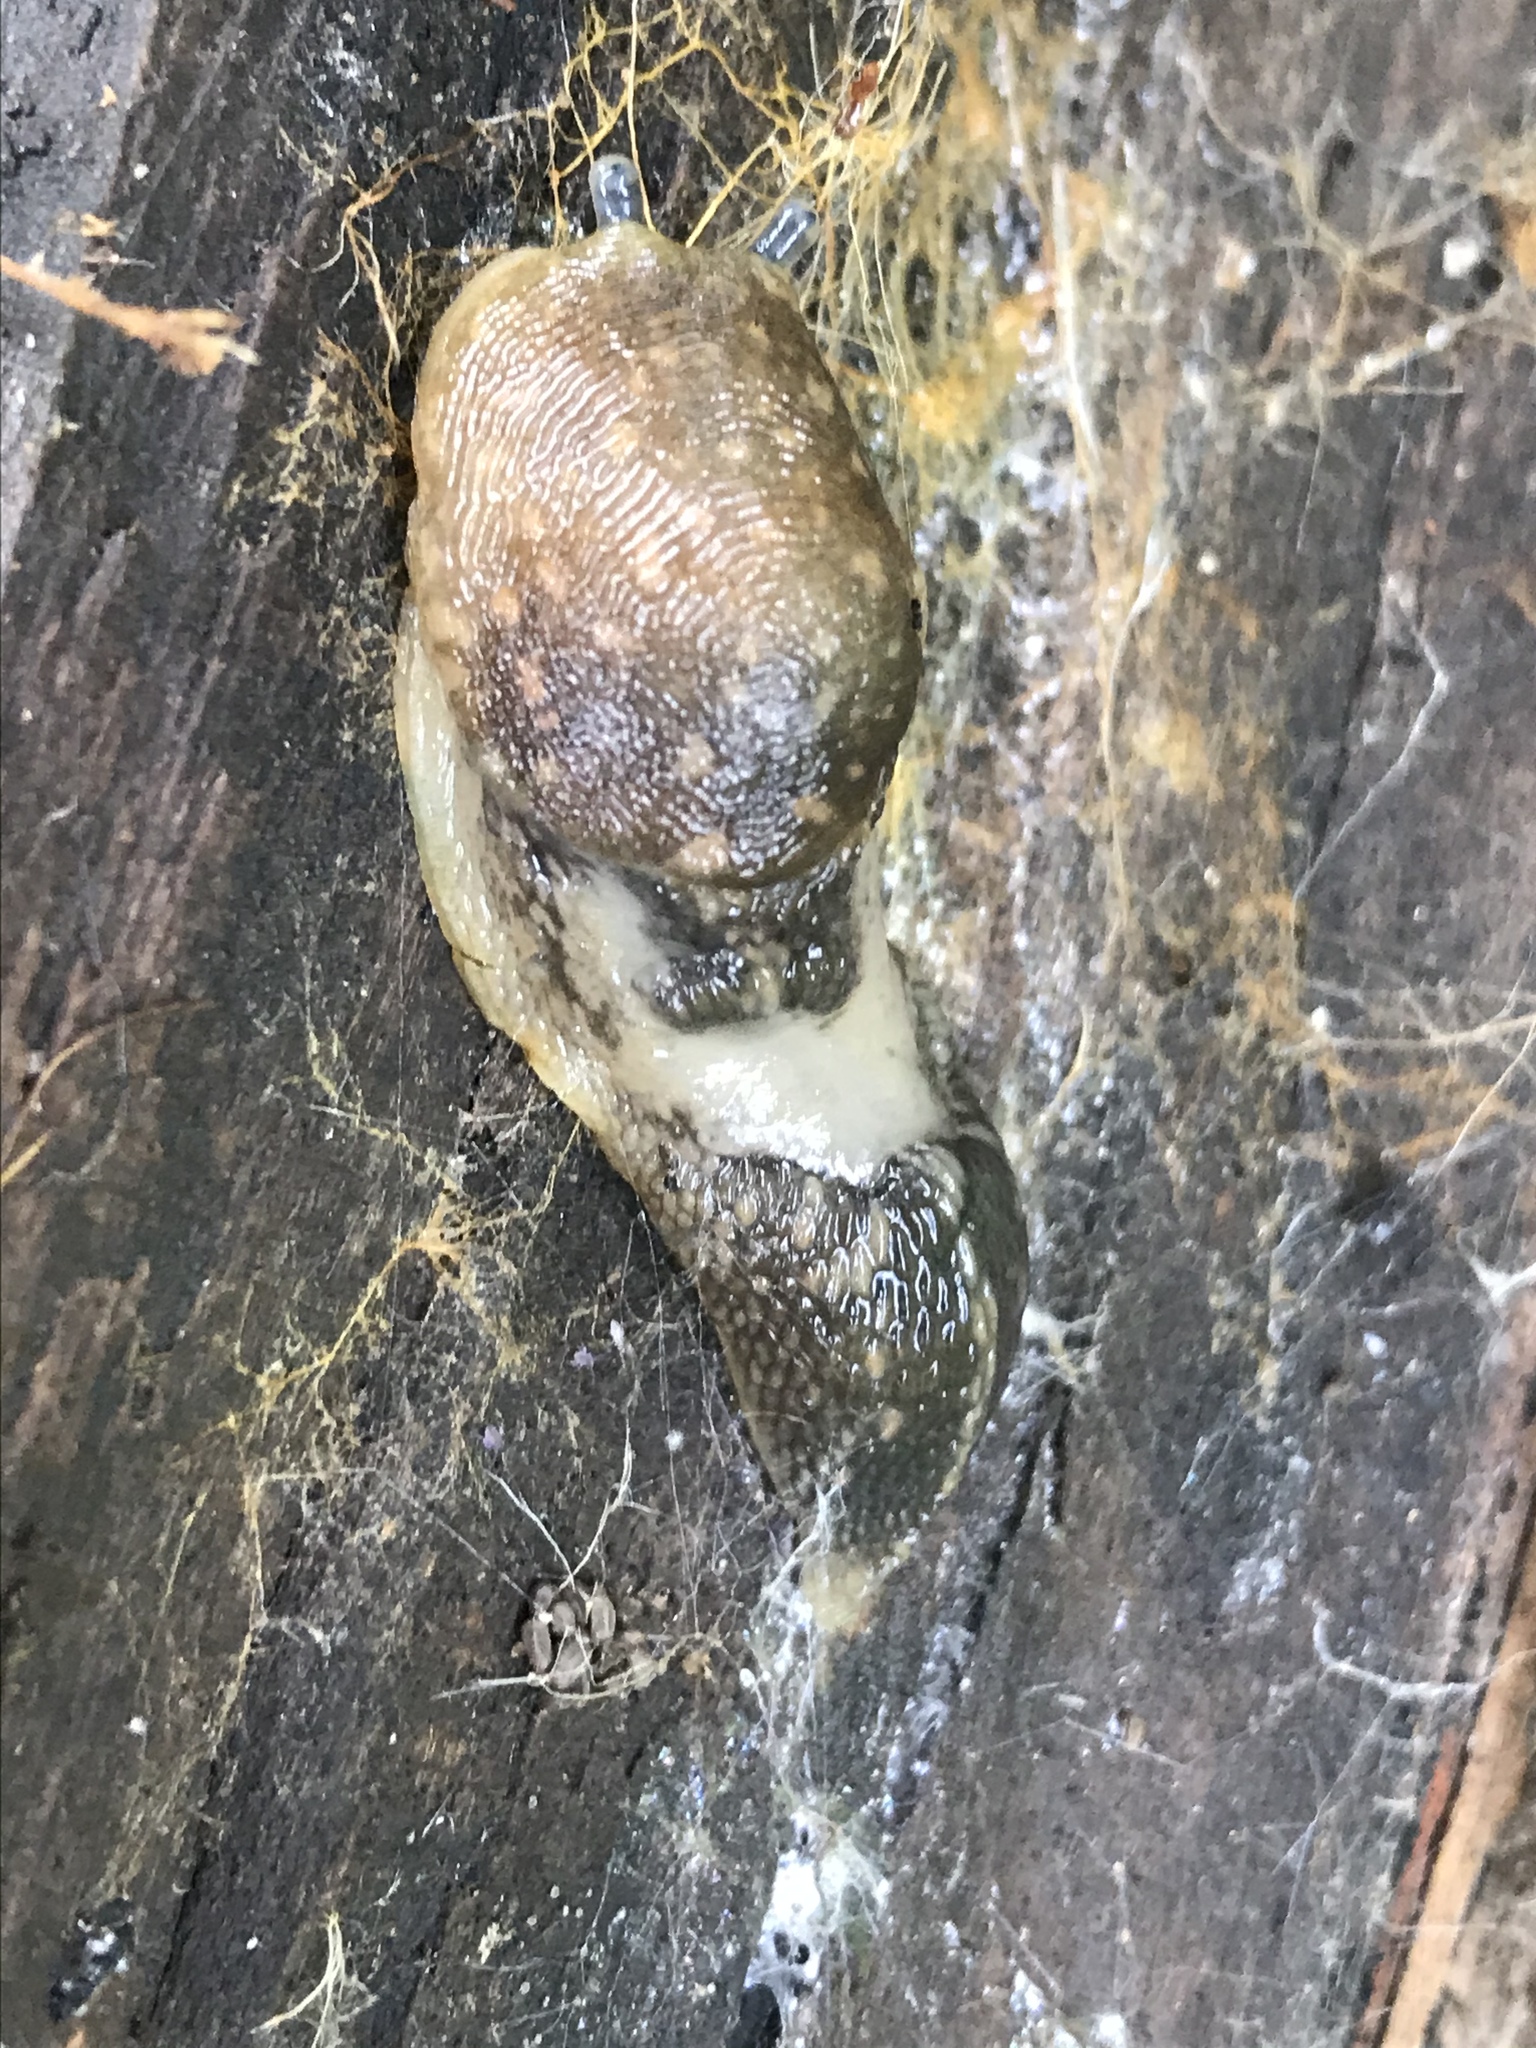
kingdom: Animalia
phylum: Mollusca
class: Gastropoda
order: Stylommatophora
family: Limacidae
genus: Limacus
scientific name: Limacus flavus
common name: Yellow gardenslug
